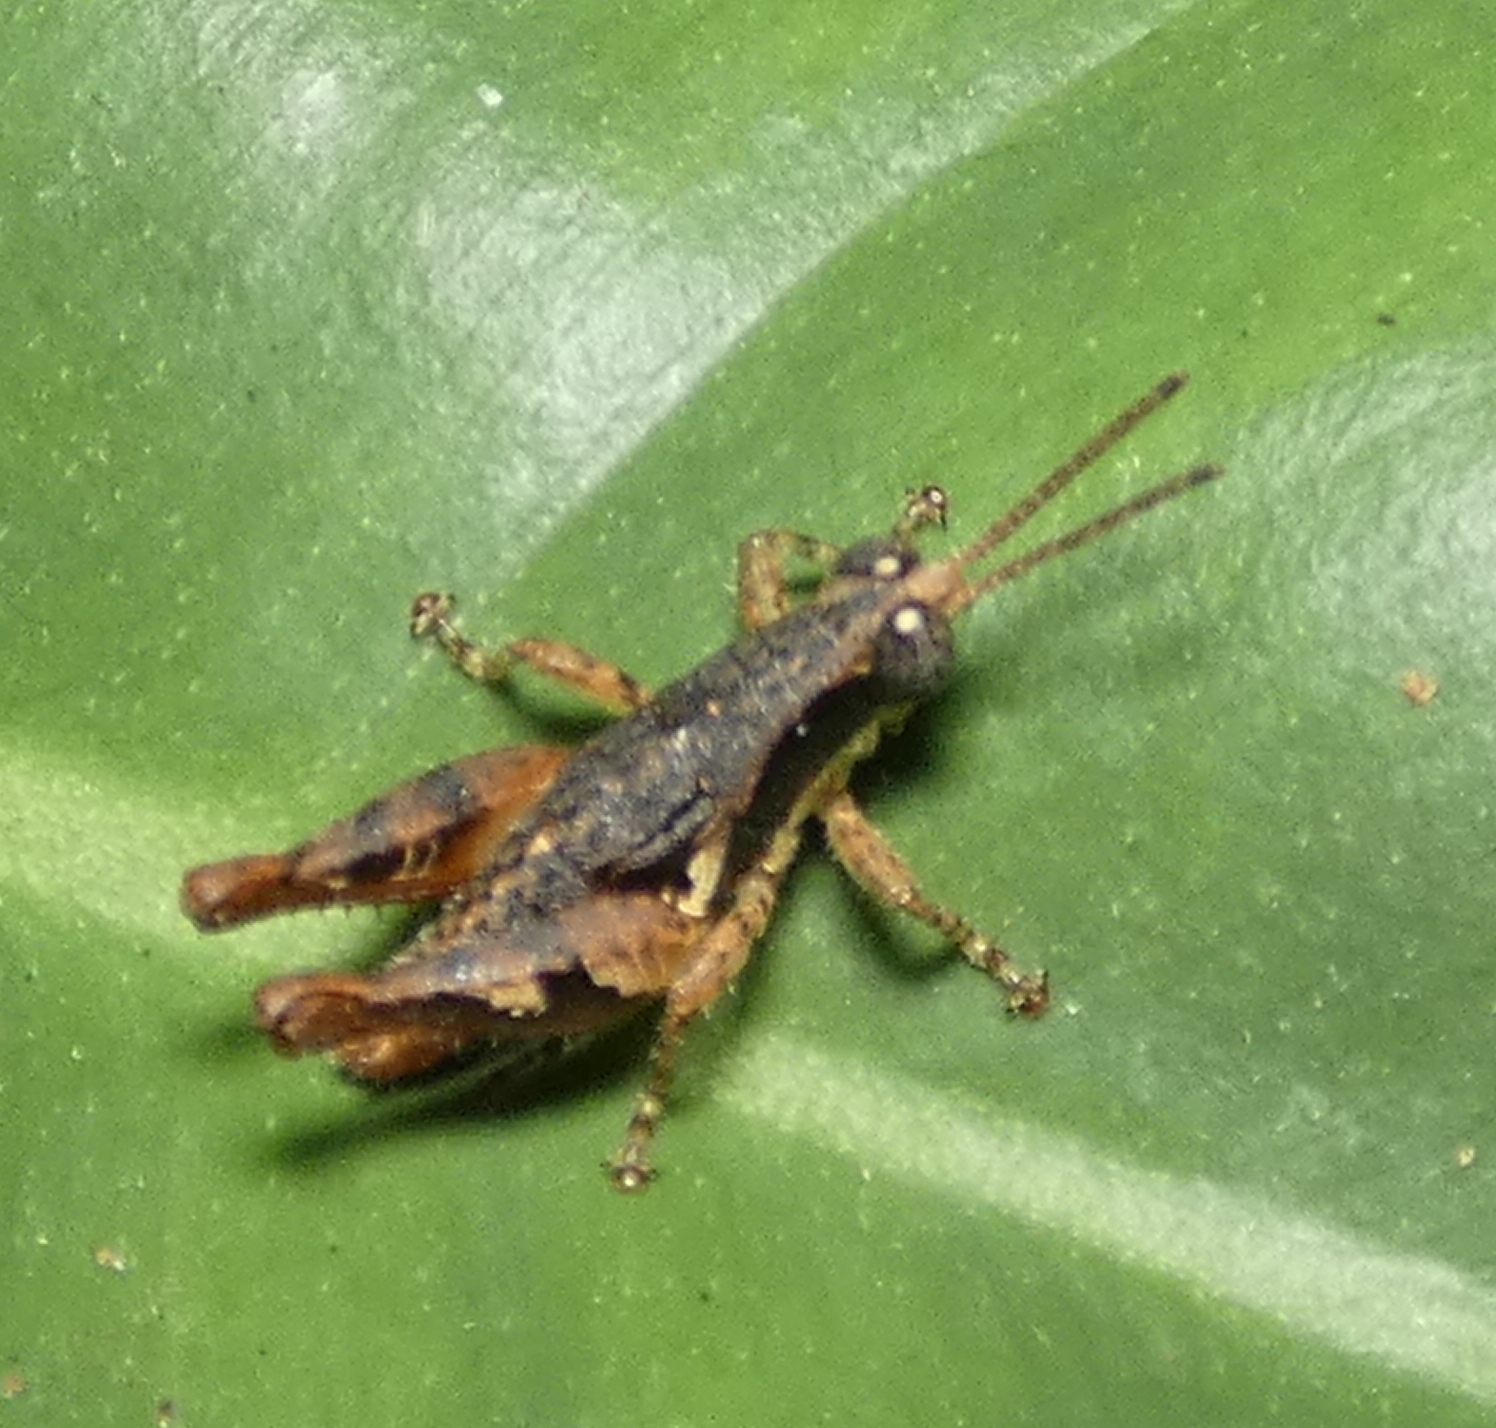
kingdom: Animalia
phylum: Arthropoda
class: Insecta
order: Orthoptera
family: Acrididae
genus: Eujivarus
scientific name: Eujivarus meridionalis
